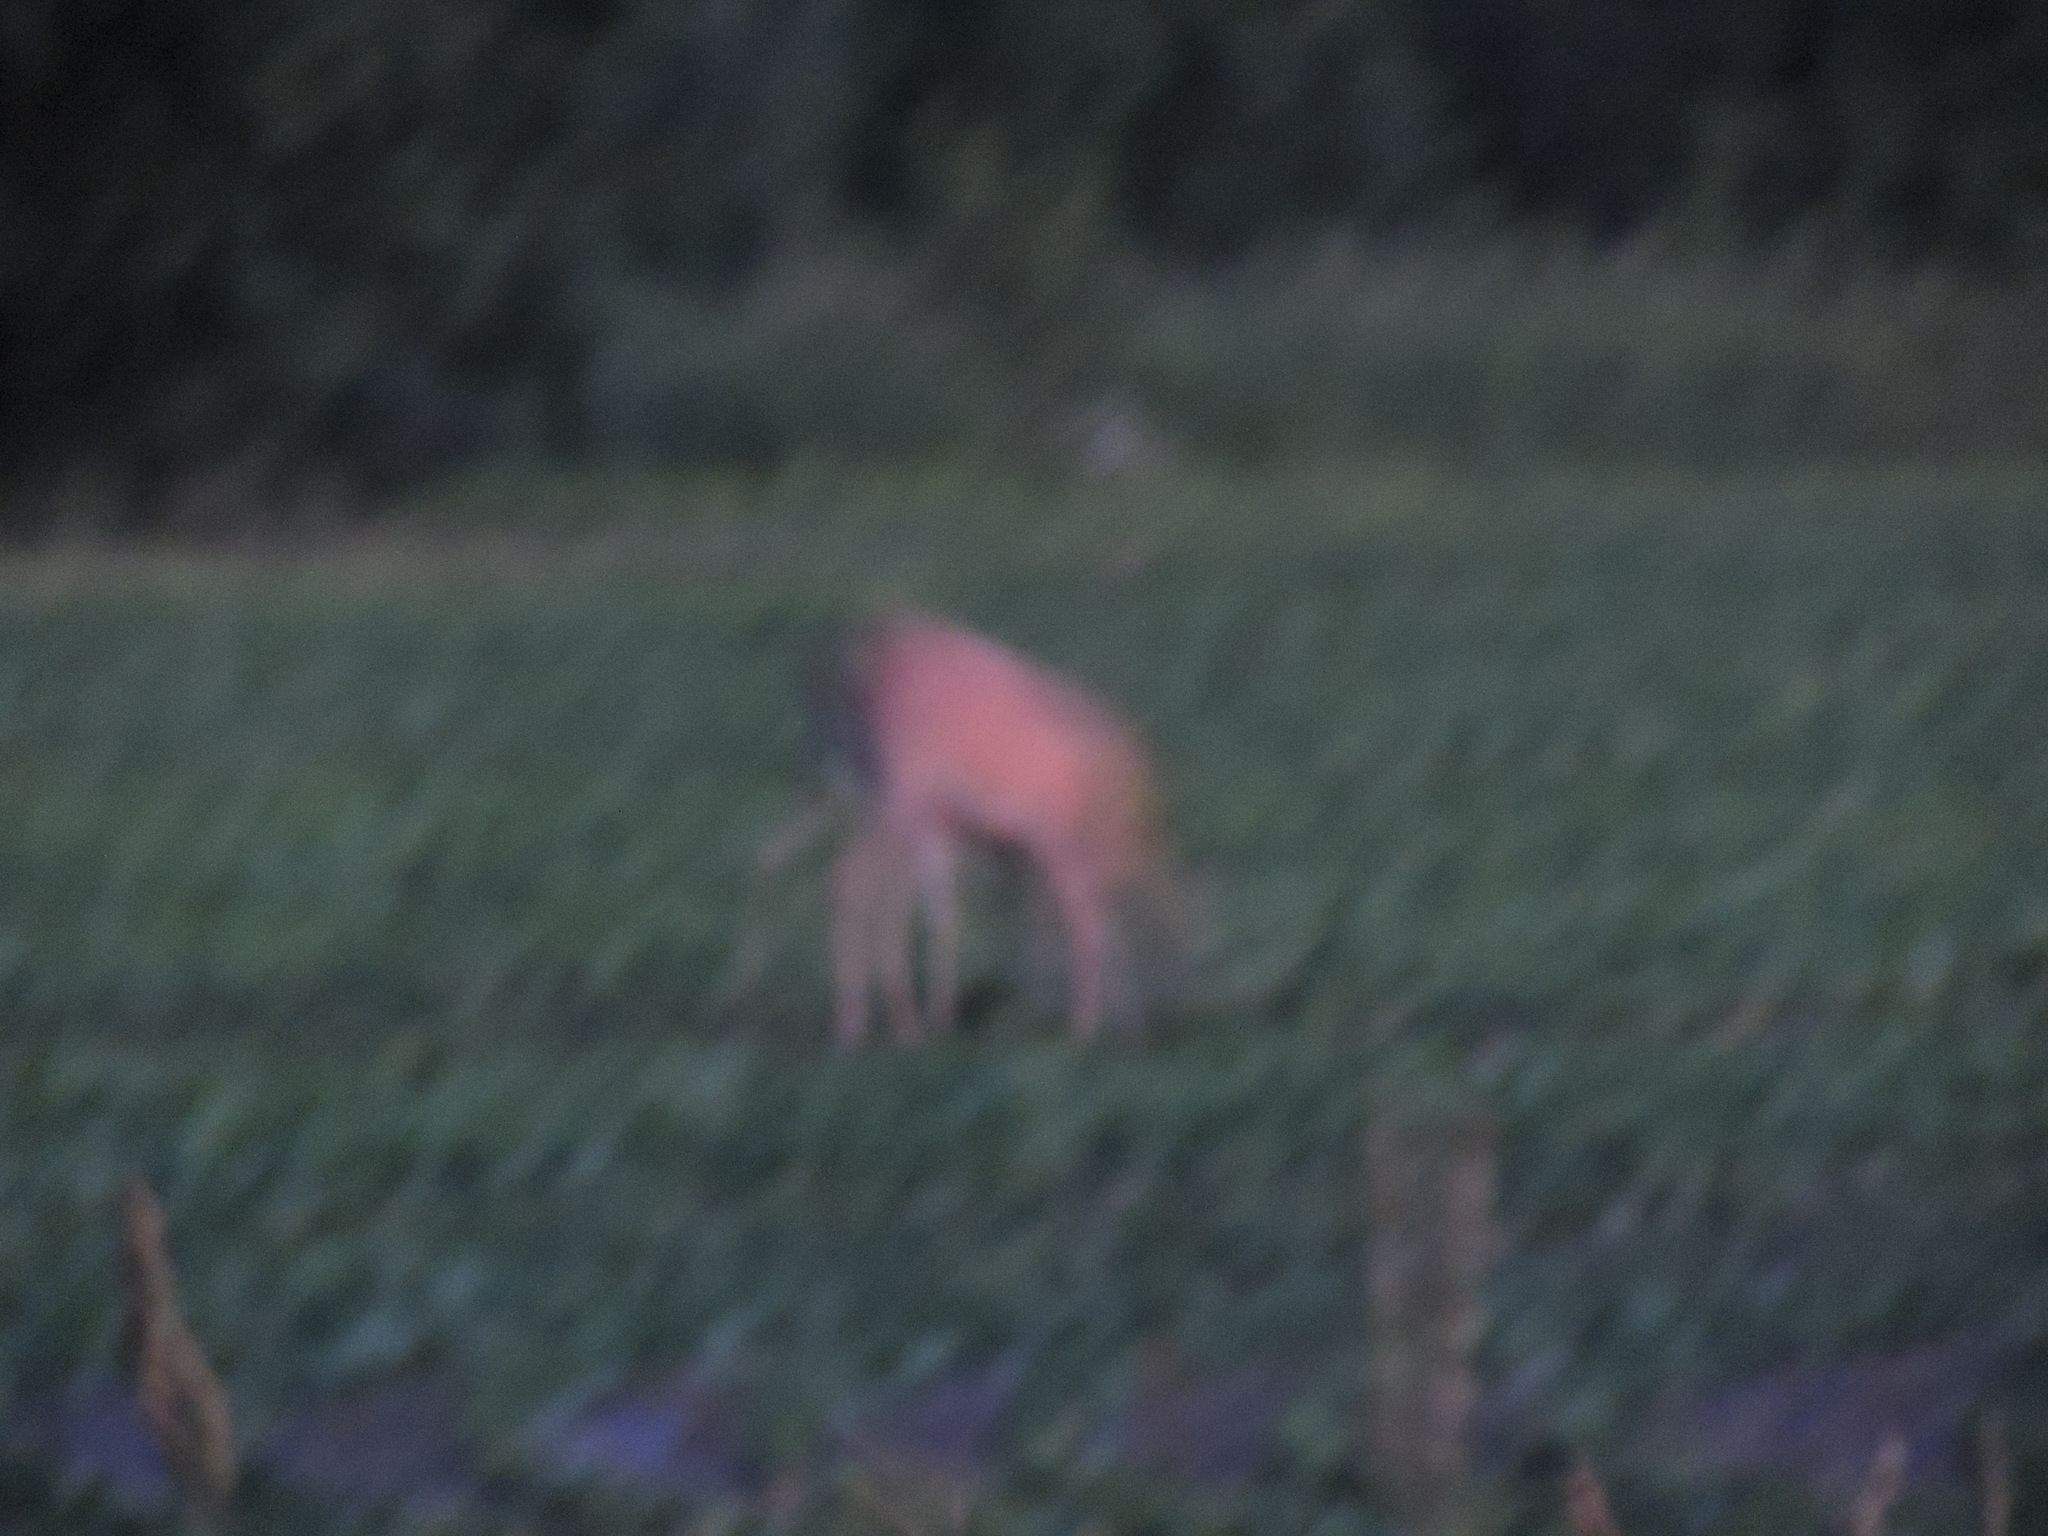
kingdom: Animalia
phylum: Chordata
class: Mammalia
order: Artiodactyla
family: Cervidae
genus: Odocoileus
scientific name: Odocoileus virginianus
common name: White-tailed deer
